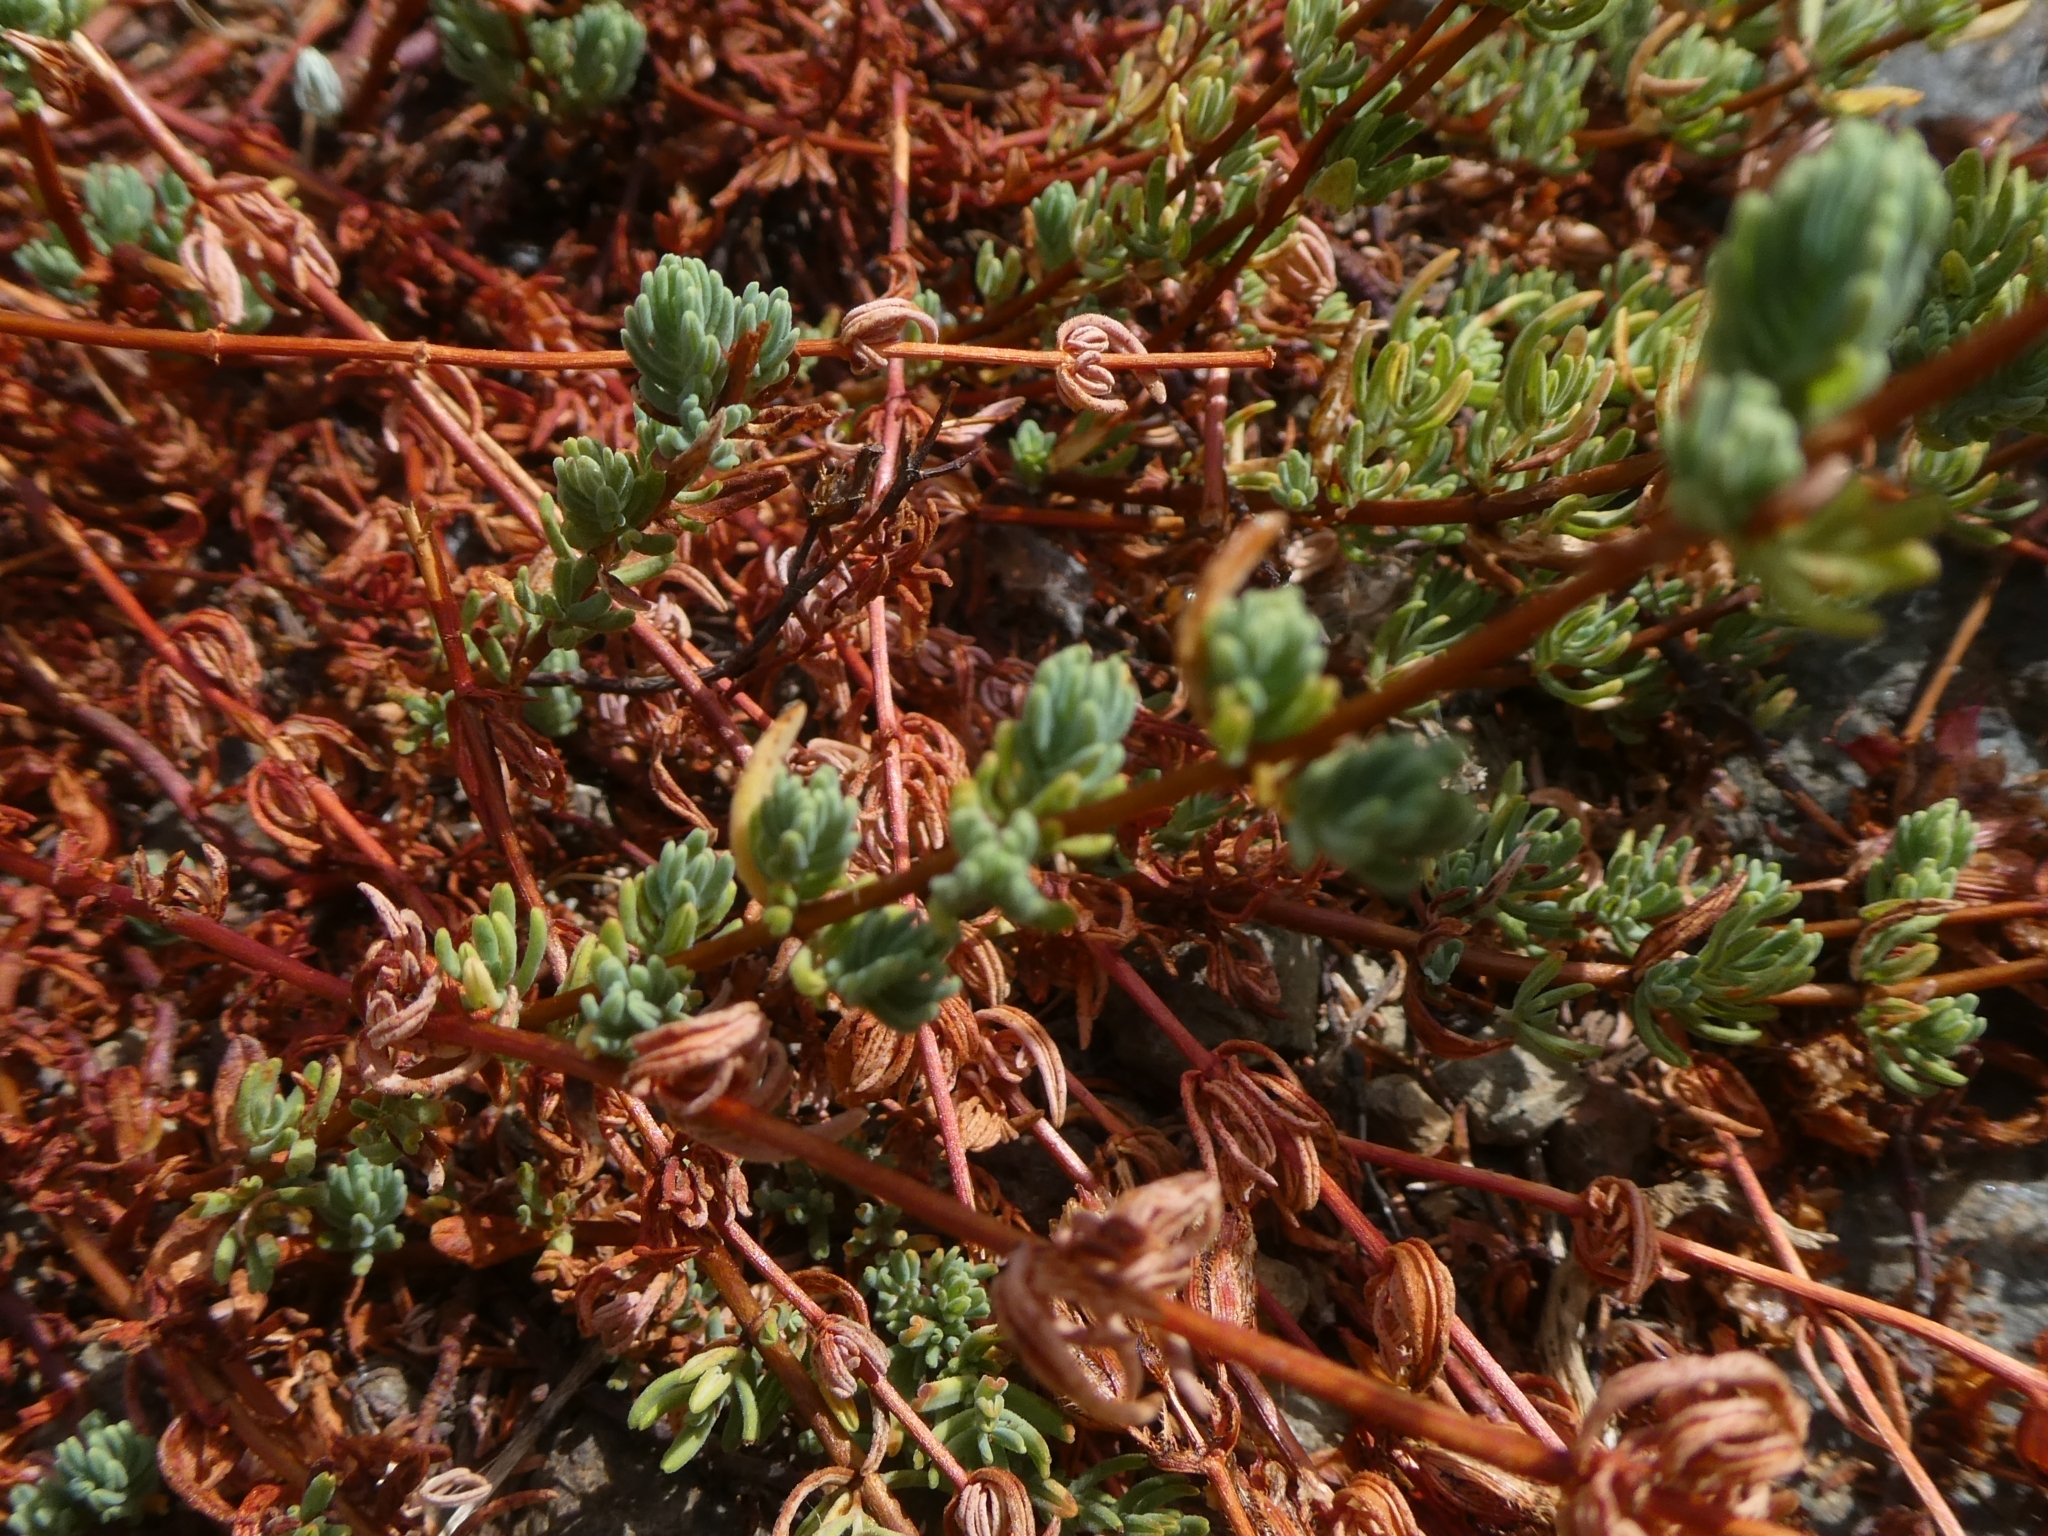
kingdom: Plantae
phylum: Tracheophyta
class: Magnoliopsida
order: Malpighiales
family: Hypericaceae
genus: Hypericum
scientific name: Hypericum stenobotrys
